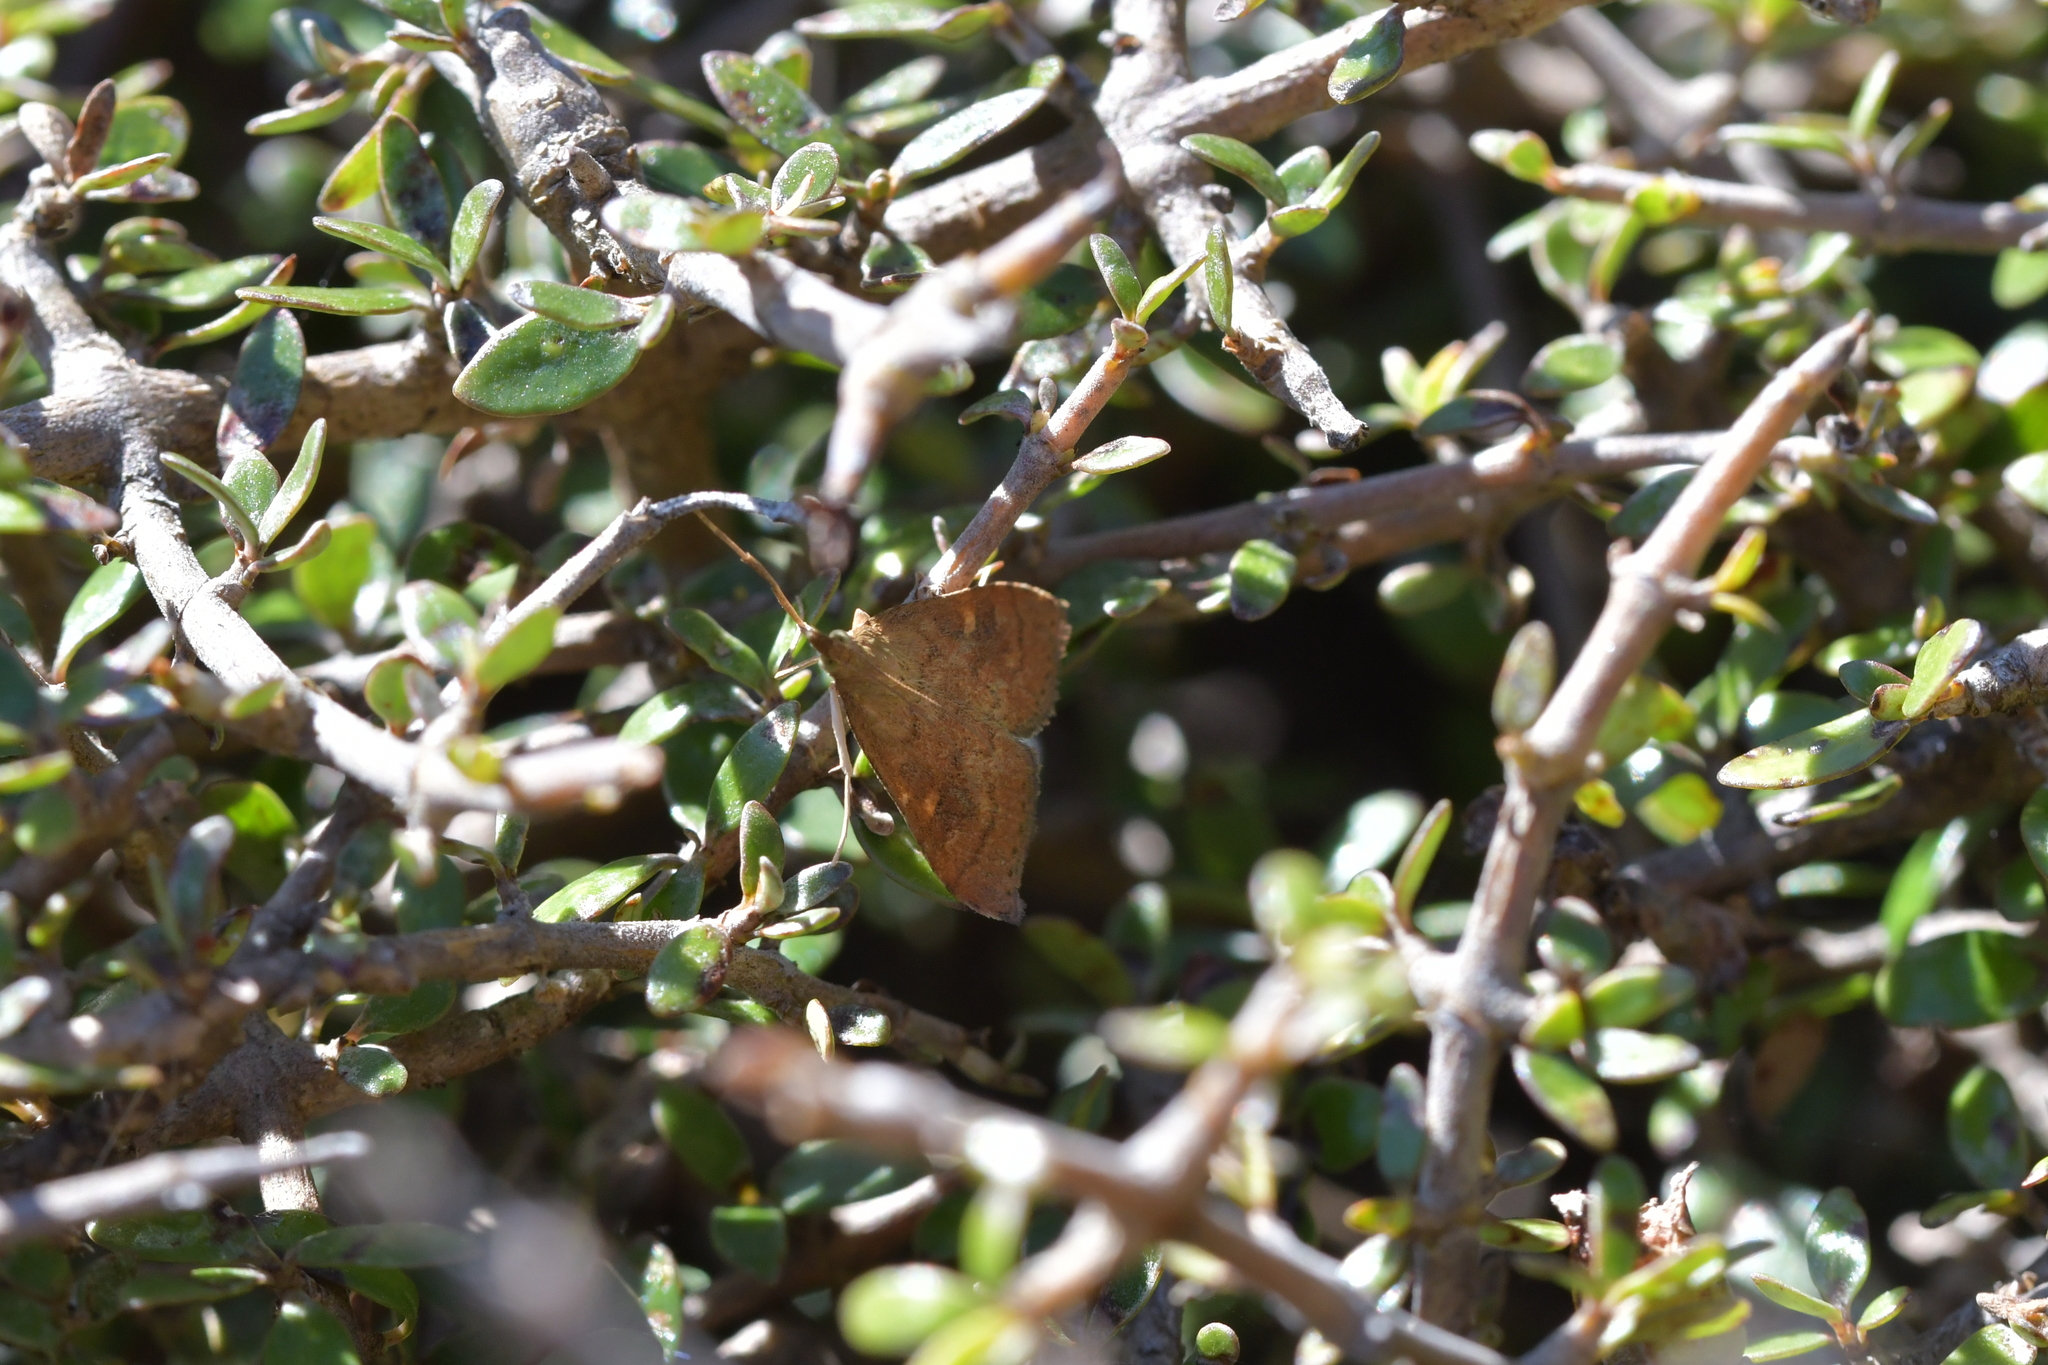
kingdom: Animalia
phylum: Arthropoda
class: Insecta
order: Lepidoptera
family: Crambidae
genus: Udea
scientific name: Udea Mnesictena flavidalis
